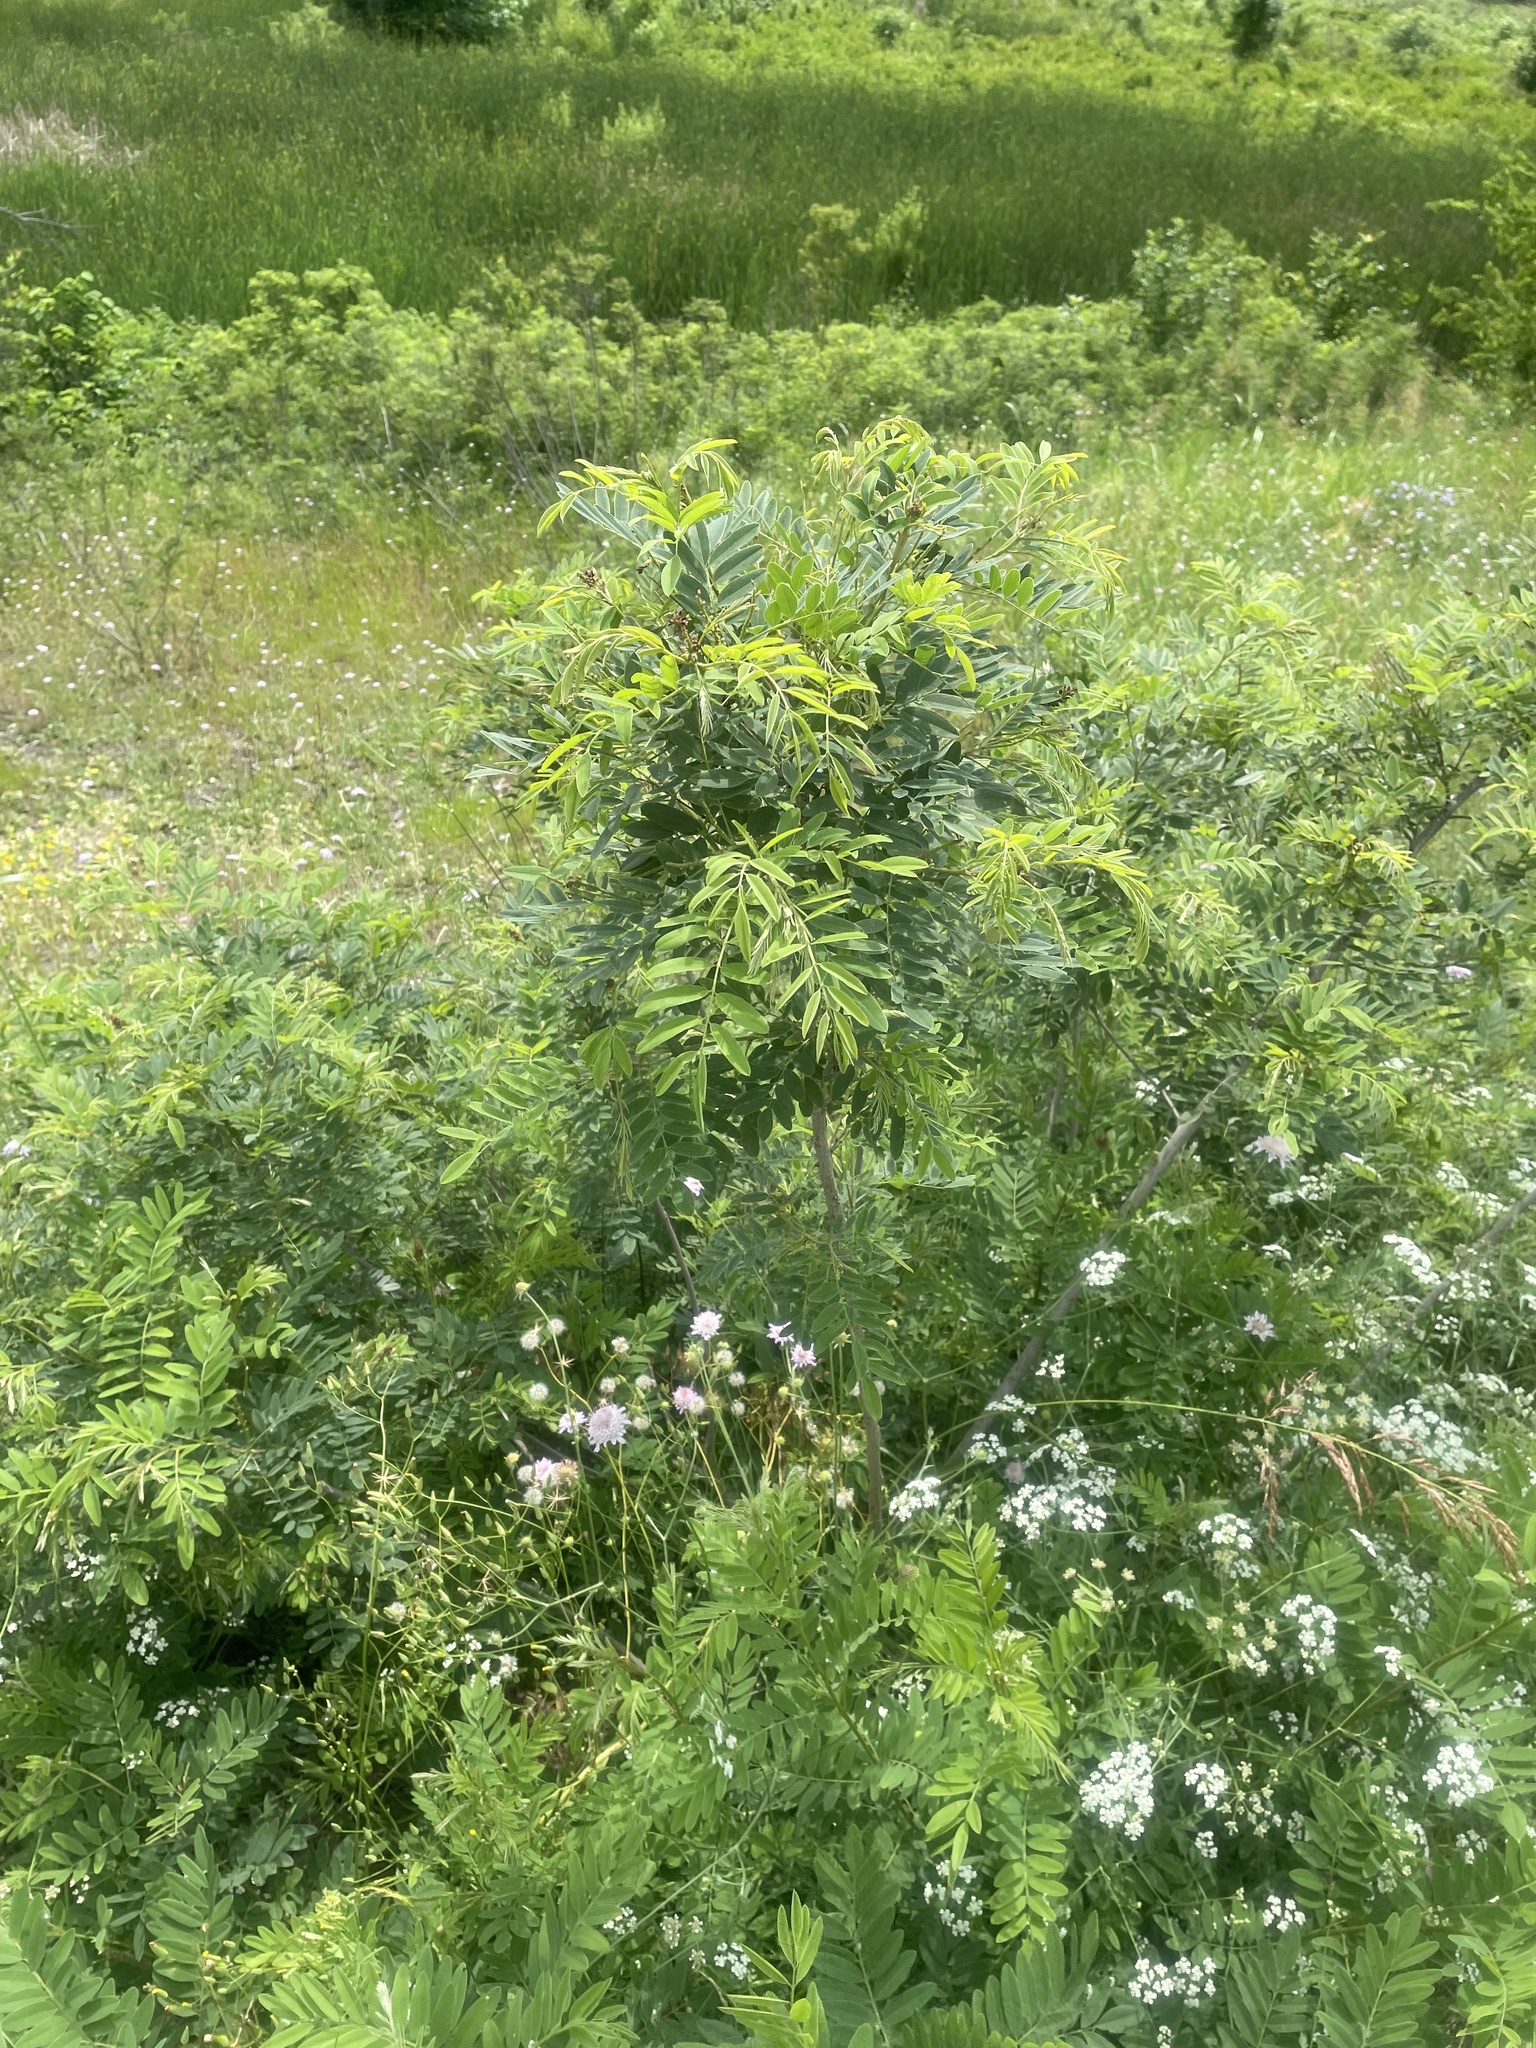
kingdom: Plantae
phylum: Tracheophyta
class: Magnoliopsida
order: Fabales
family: Fabaceae
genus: Amorpha
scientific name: Amorpha fruticosa
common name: False indigo
